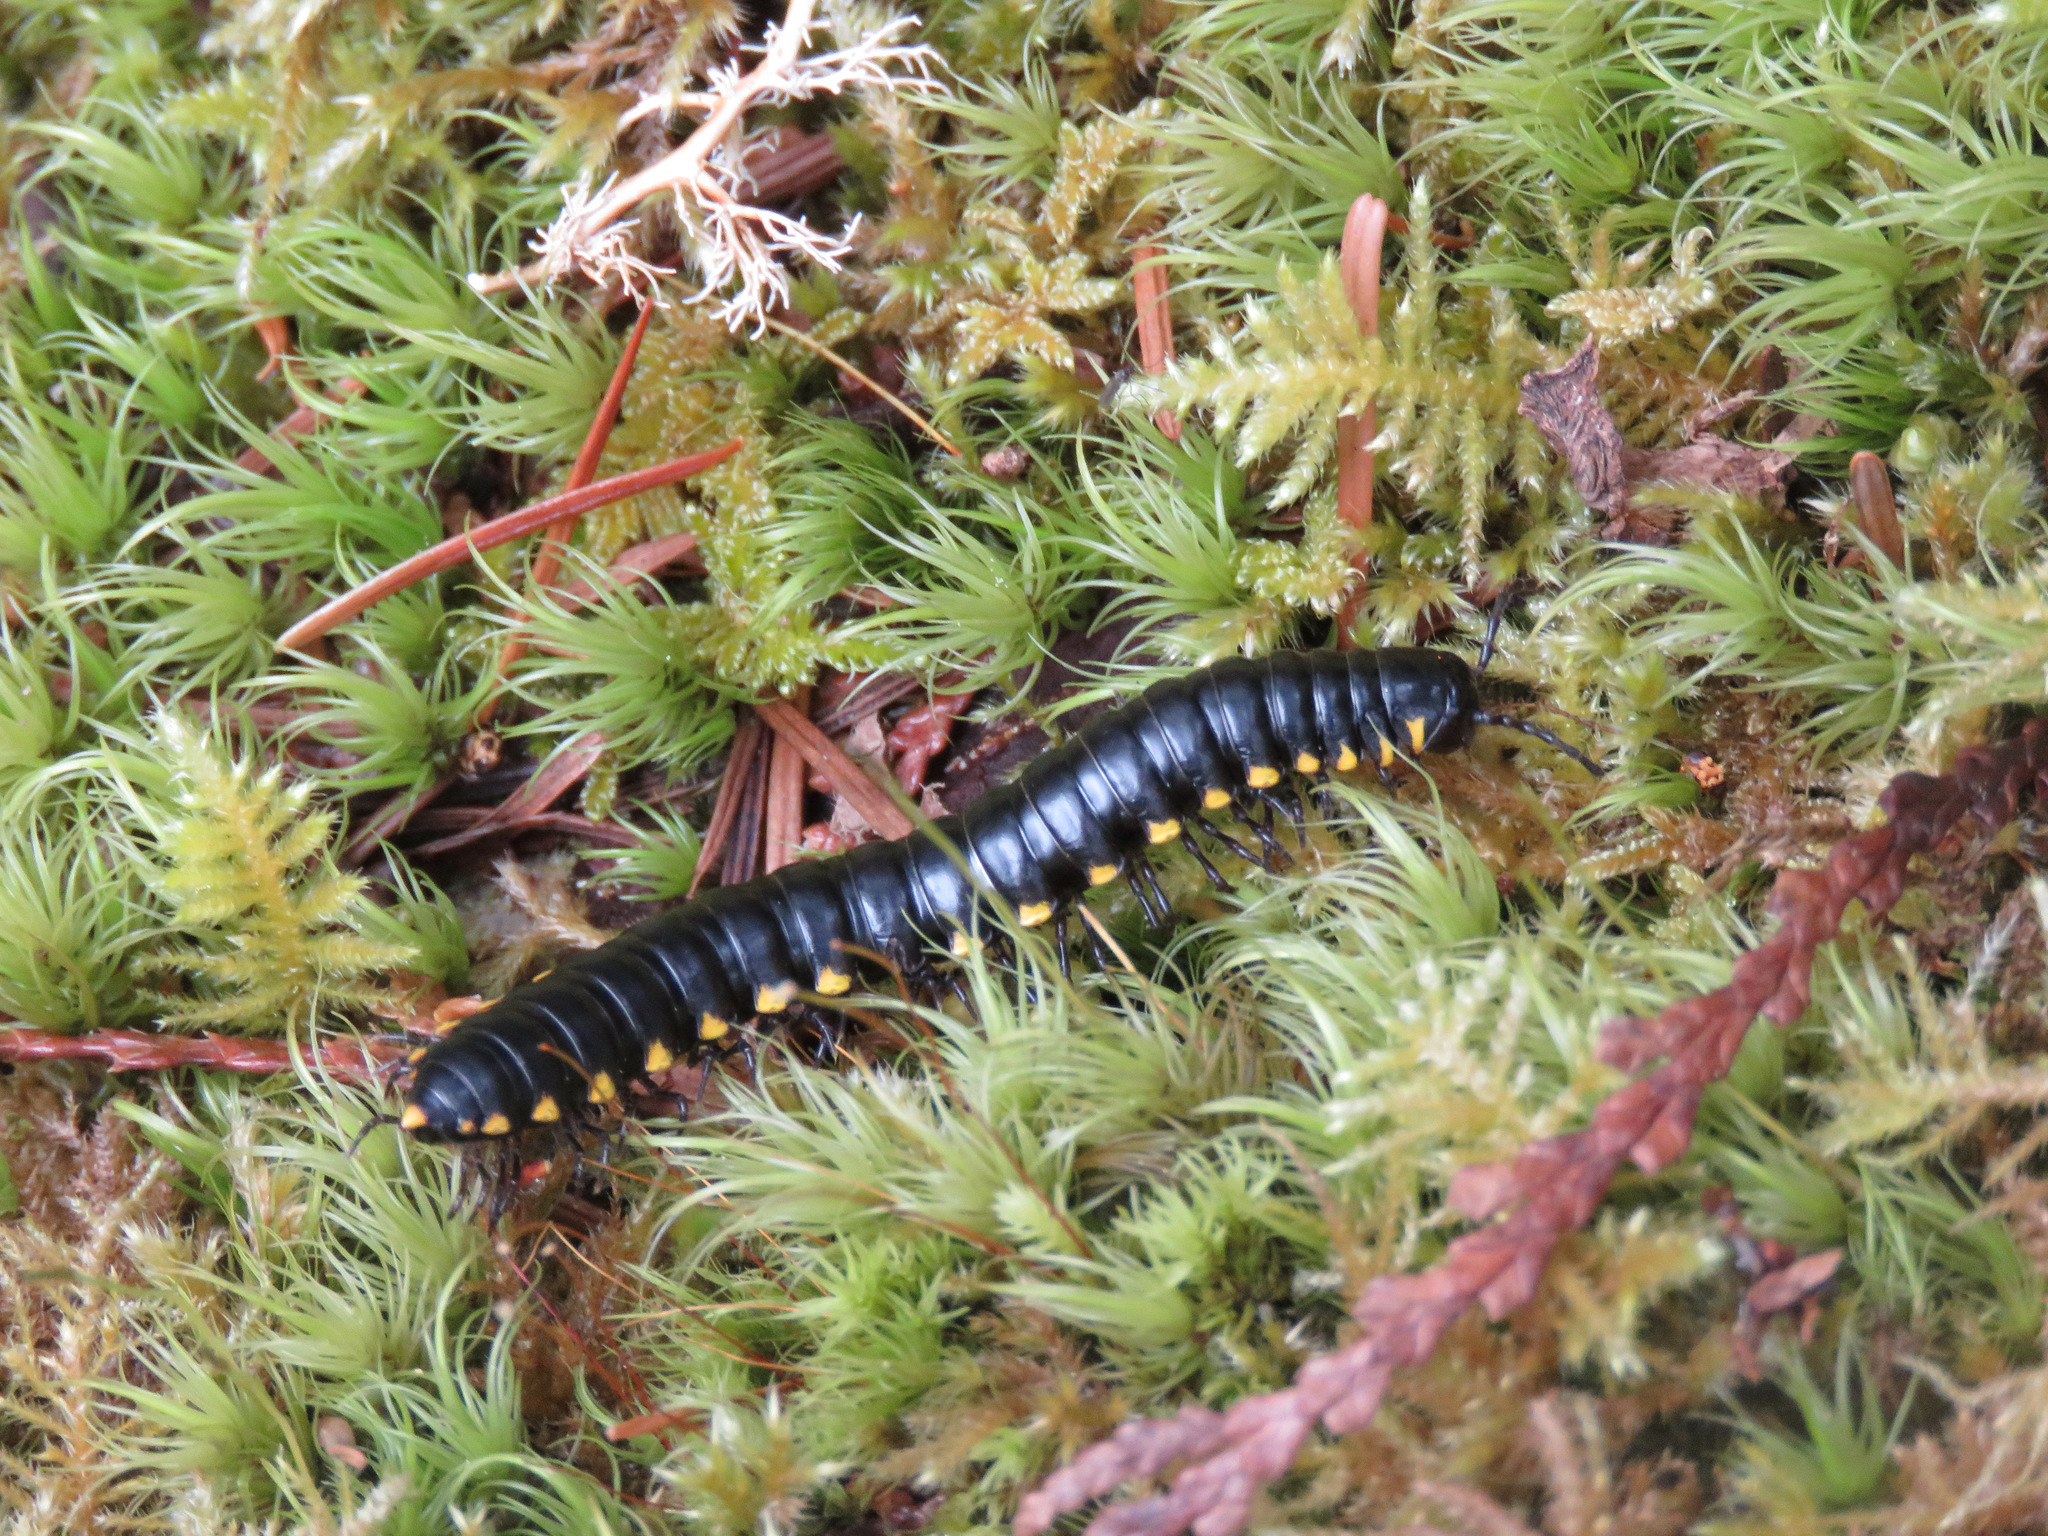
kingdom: Animalia
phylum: Arthropoda
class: Diplopoda
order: Polydesmida
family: Xystodesmidae
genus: Harpaphe
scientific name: Harpaphe haydeniana
